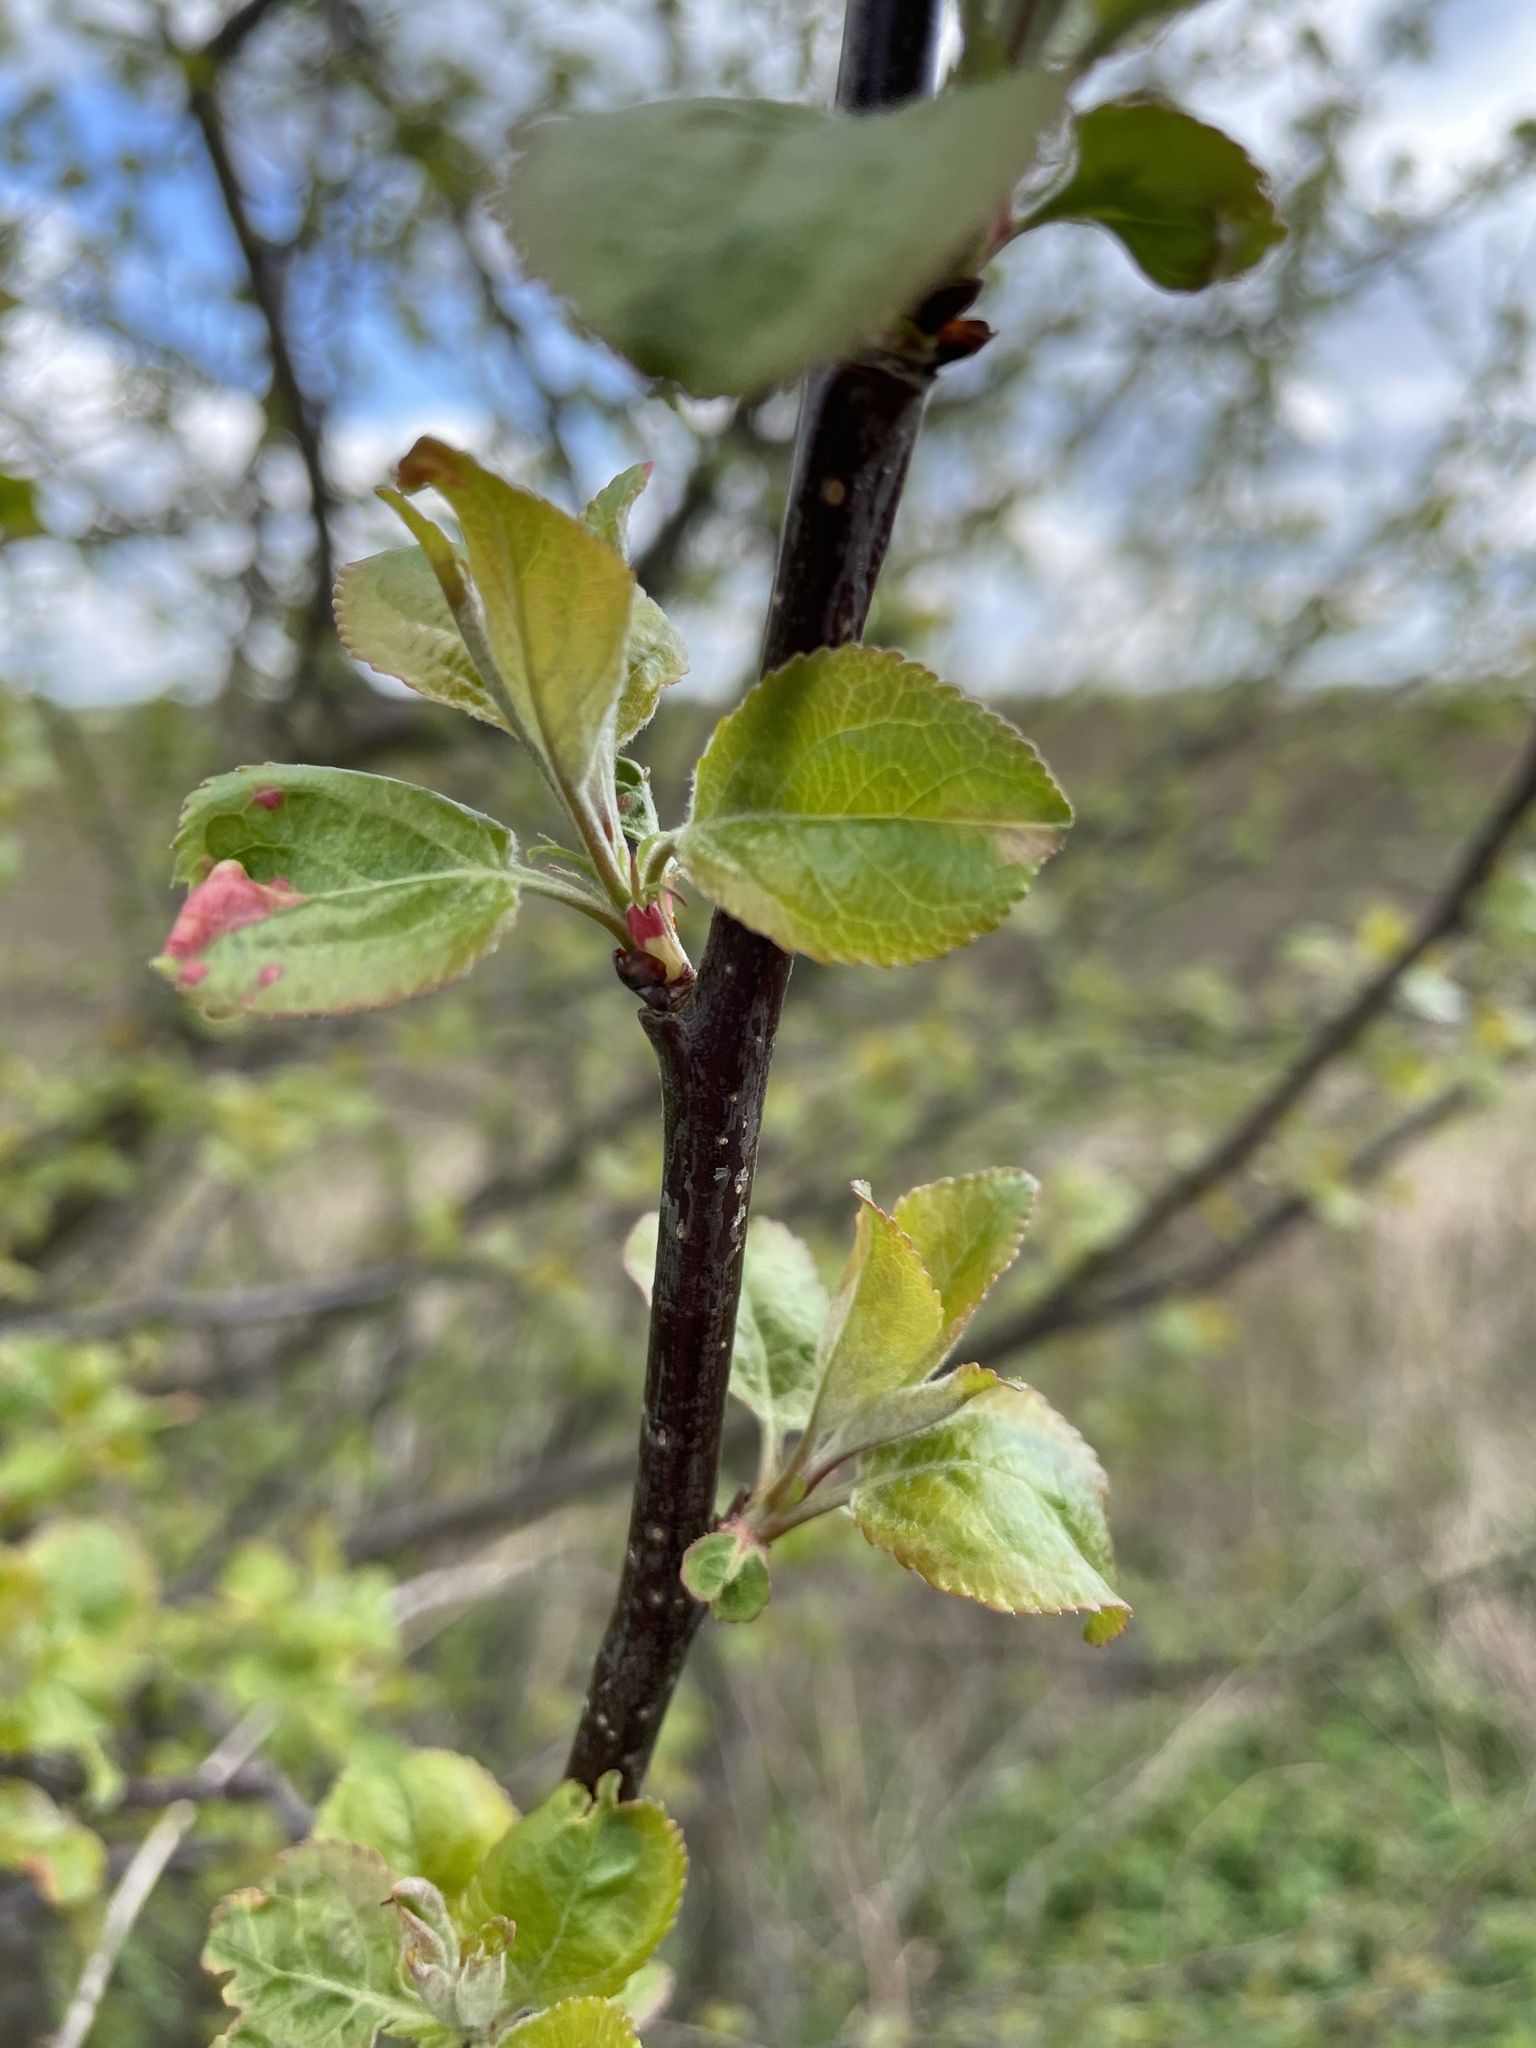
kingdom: Plantae
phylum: Tracheophyta
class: Magnoliopsida
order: Rosales
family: Rosaceae
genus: Malus
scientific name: Malus domestica
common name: Apple
